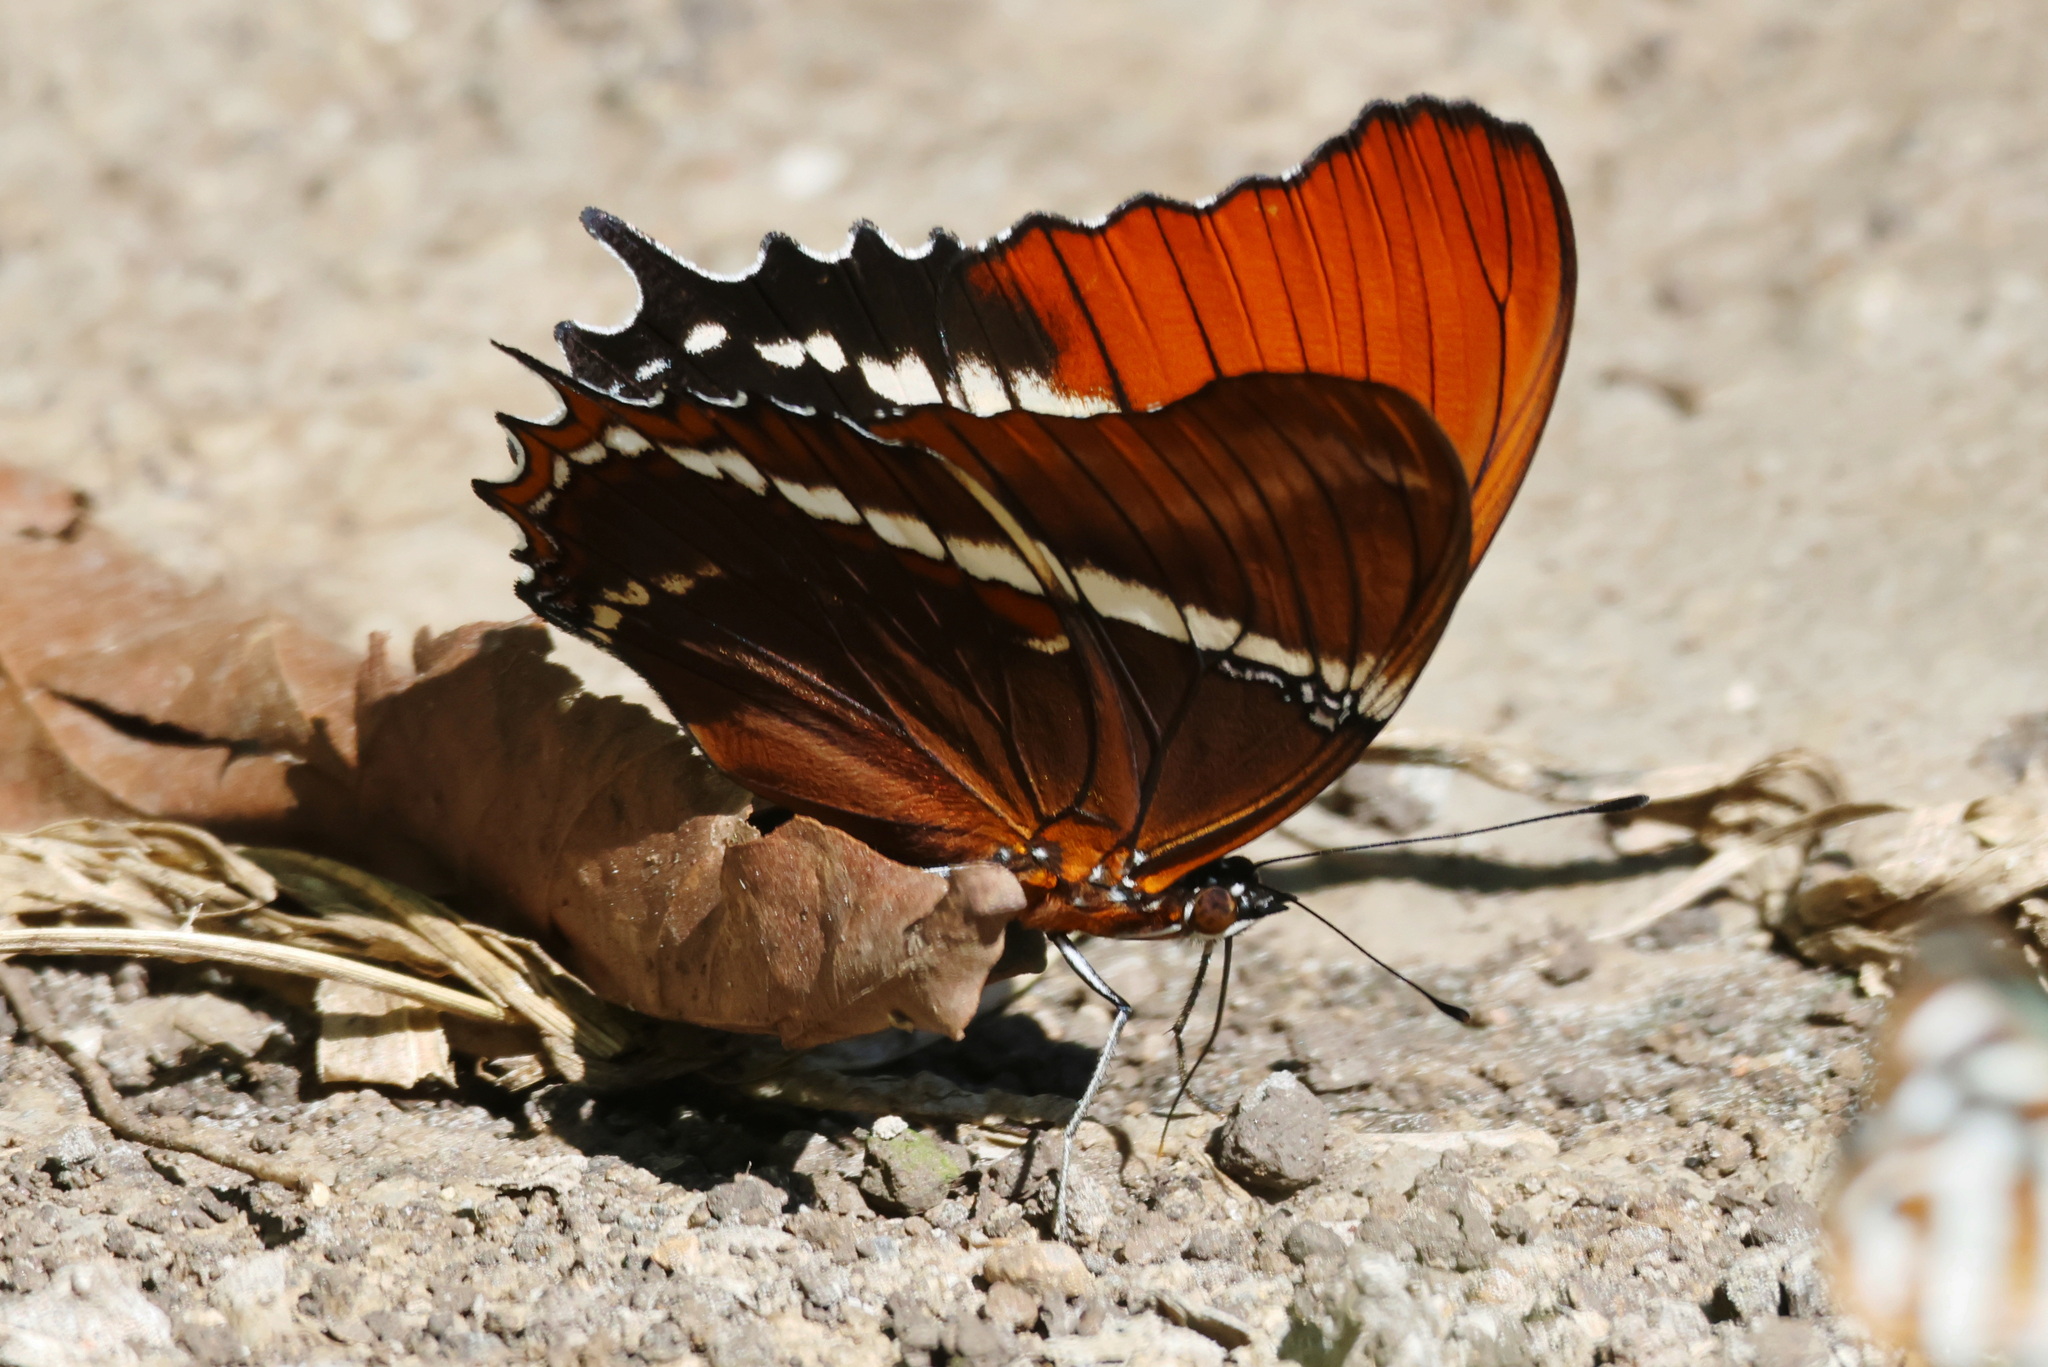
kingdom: Animalia
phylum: Arthropoda
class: Insecta
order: Lepidoptera
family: Nymphalidae
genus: Siproeta
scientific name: Siproeta epaphus
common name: Rusty-tipped page
